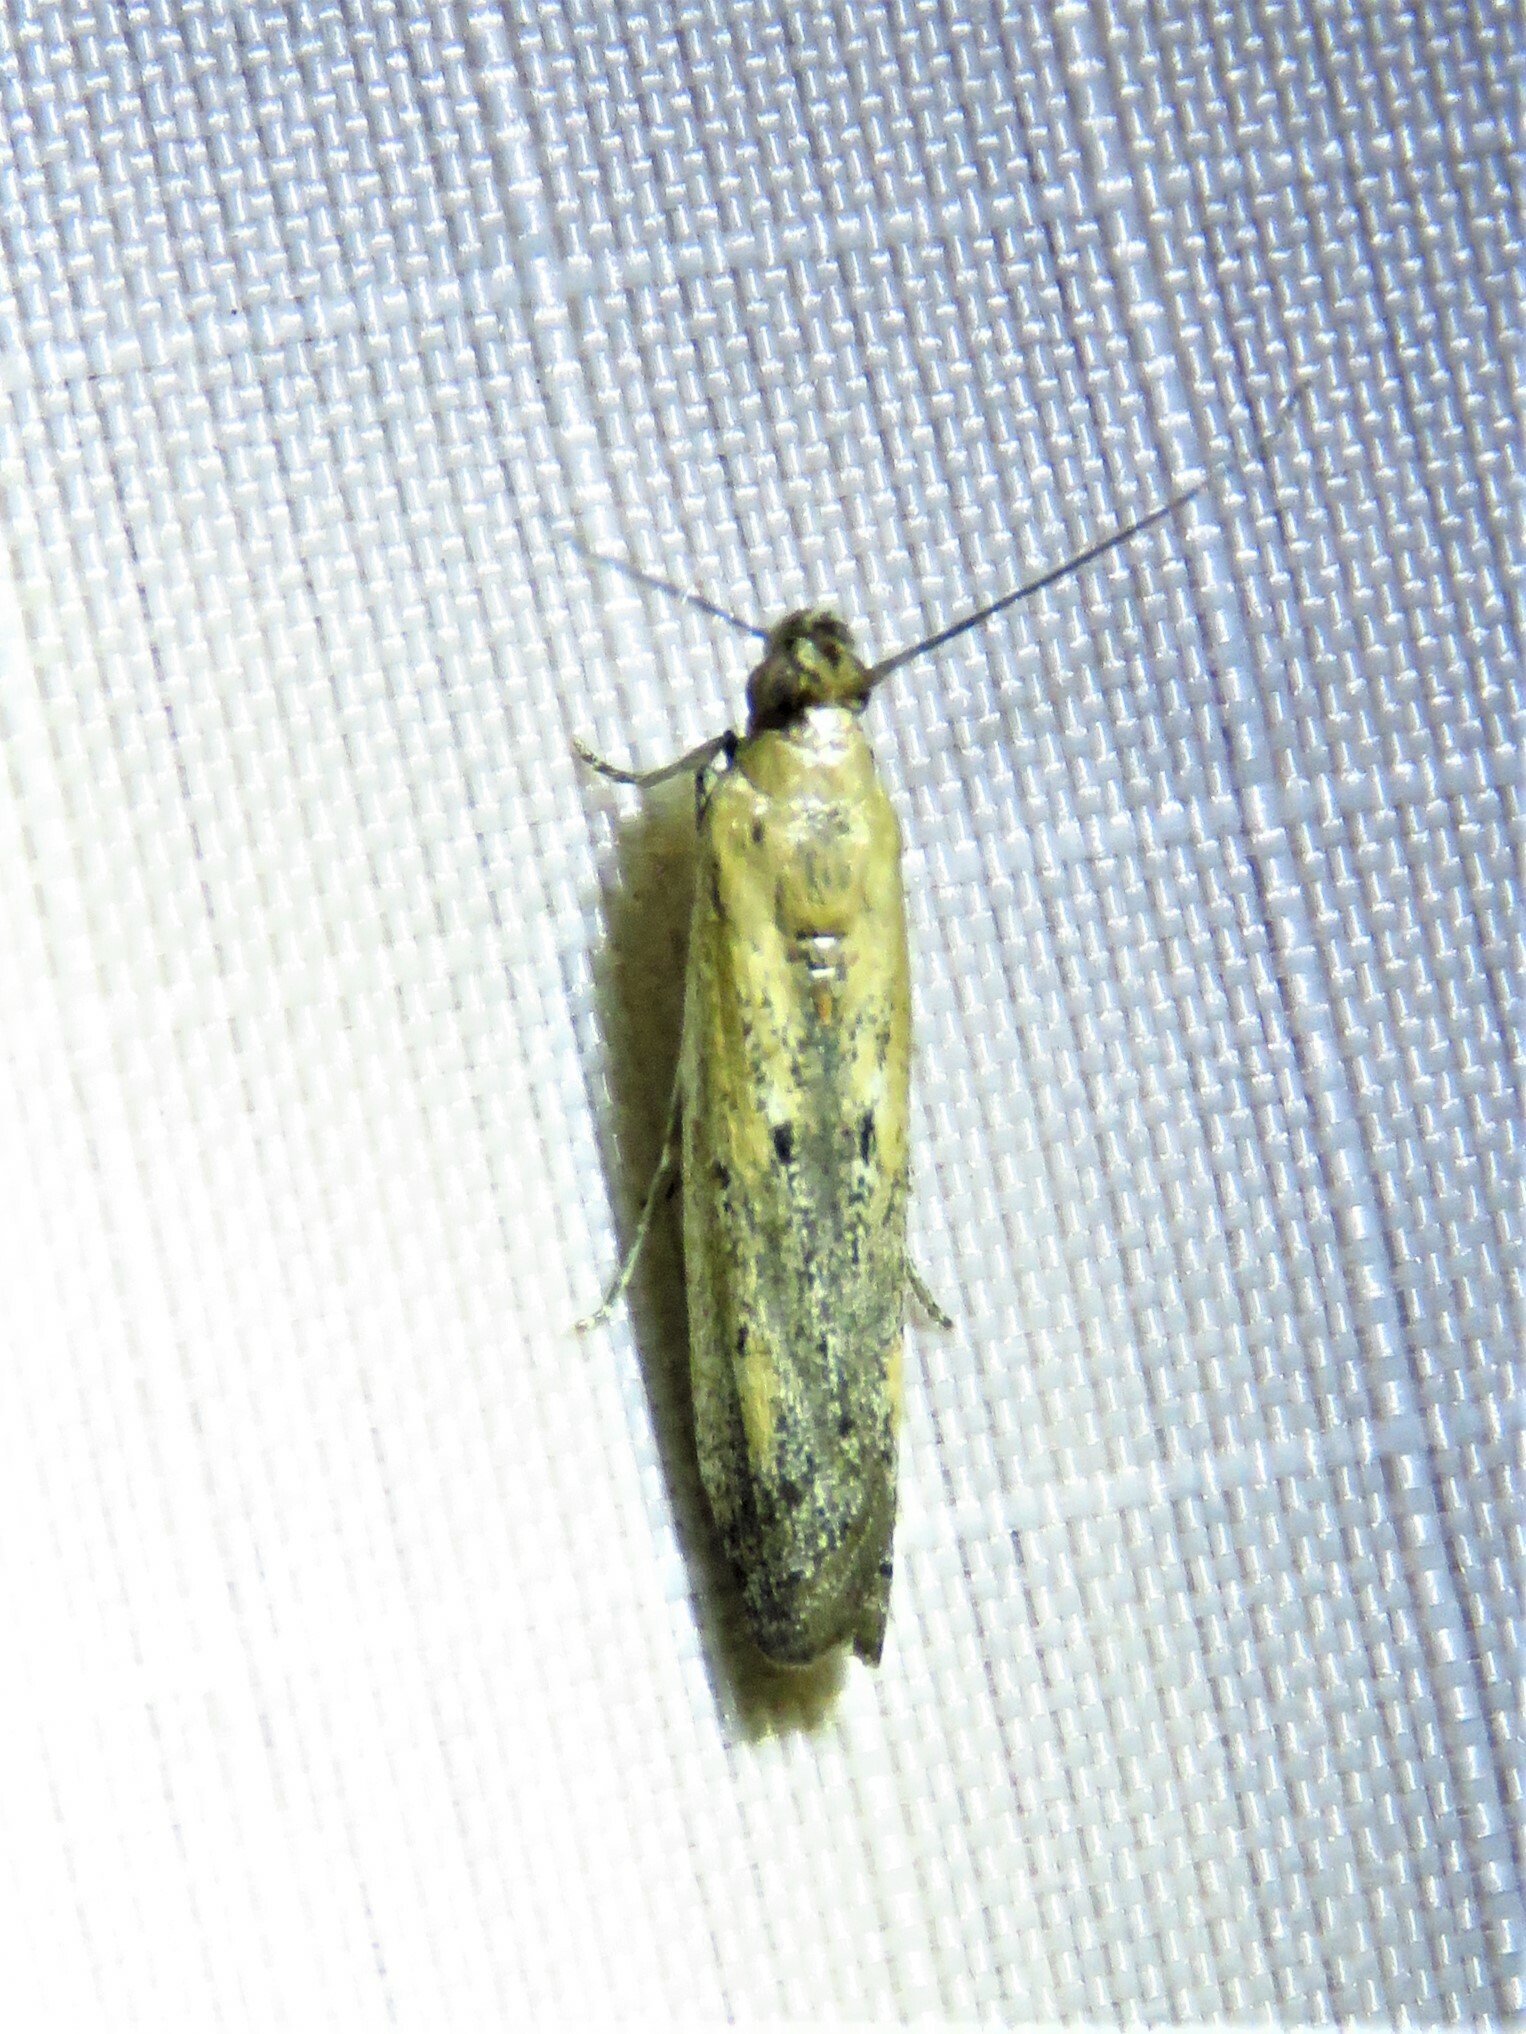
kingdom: Animalia
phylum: Arthropoda
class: Insecta
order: Lepidoptera
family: Pyralidae
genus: Elasmopalpus
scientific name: Elasmopalpus lignosella
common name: Lesser cornstalk borer
